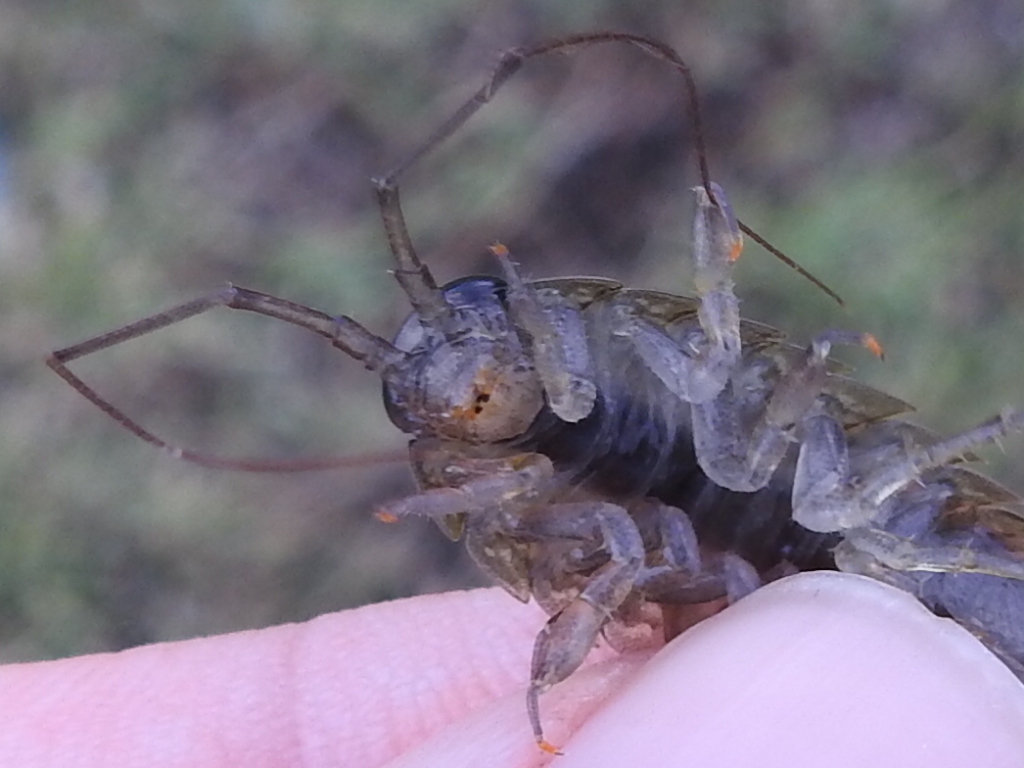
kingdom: Animalia
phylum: Arthropoda
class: Malacostraca
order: Isopoda
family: Ligiidae
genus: Ligia
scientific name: Ligia exotica
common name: Wharf roach
